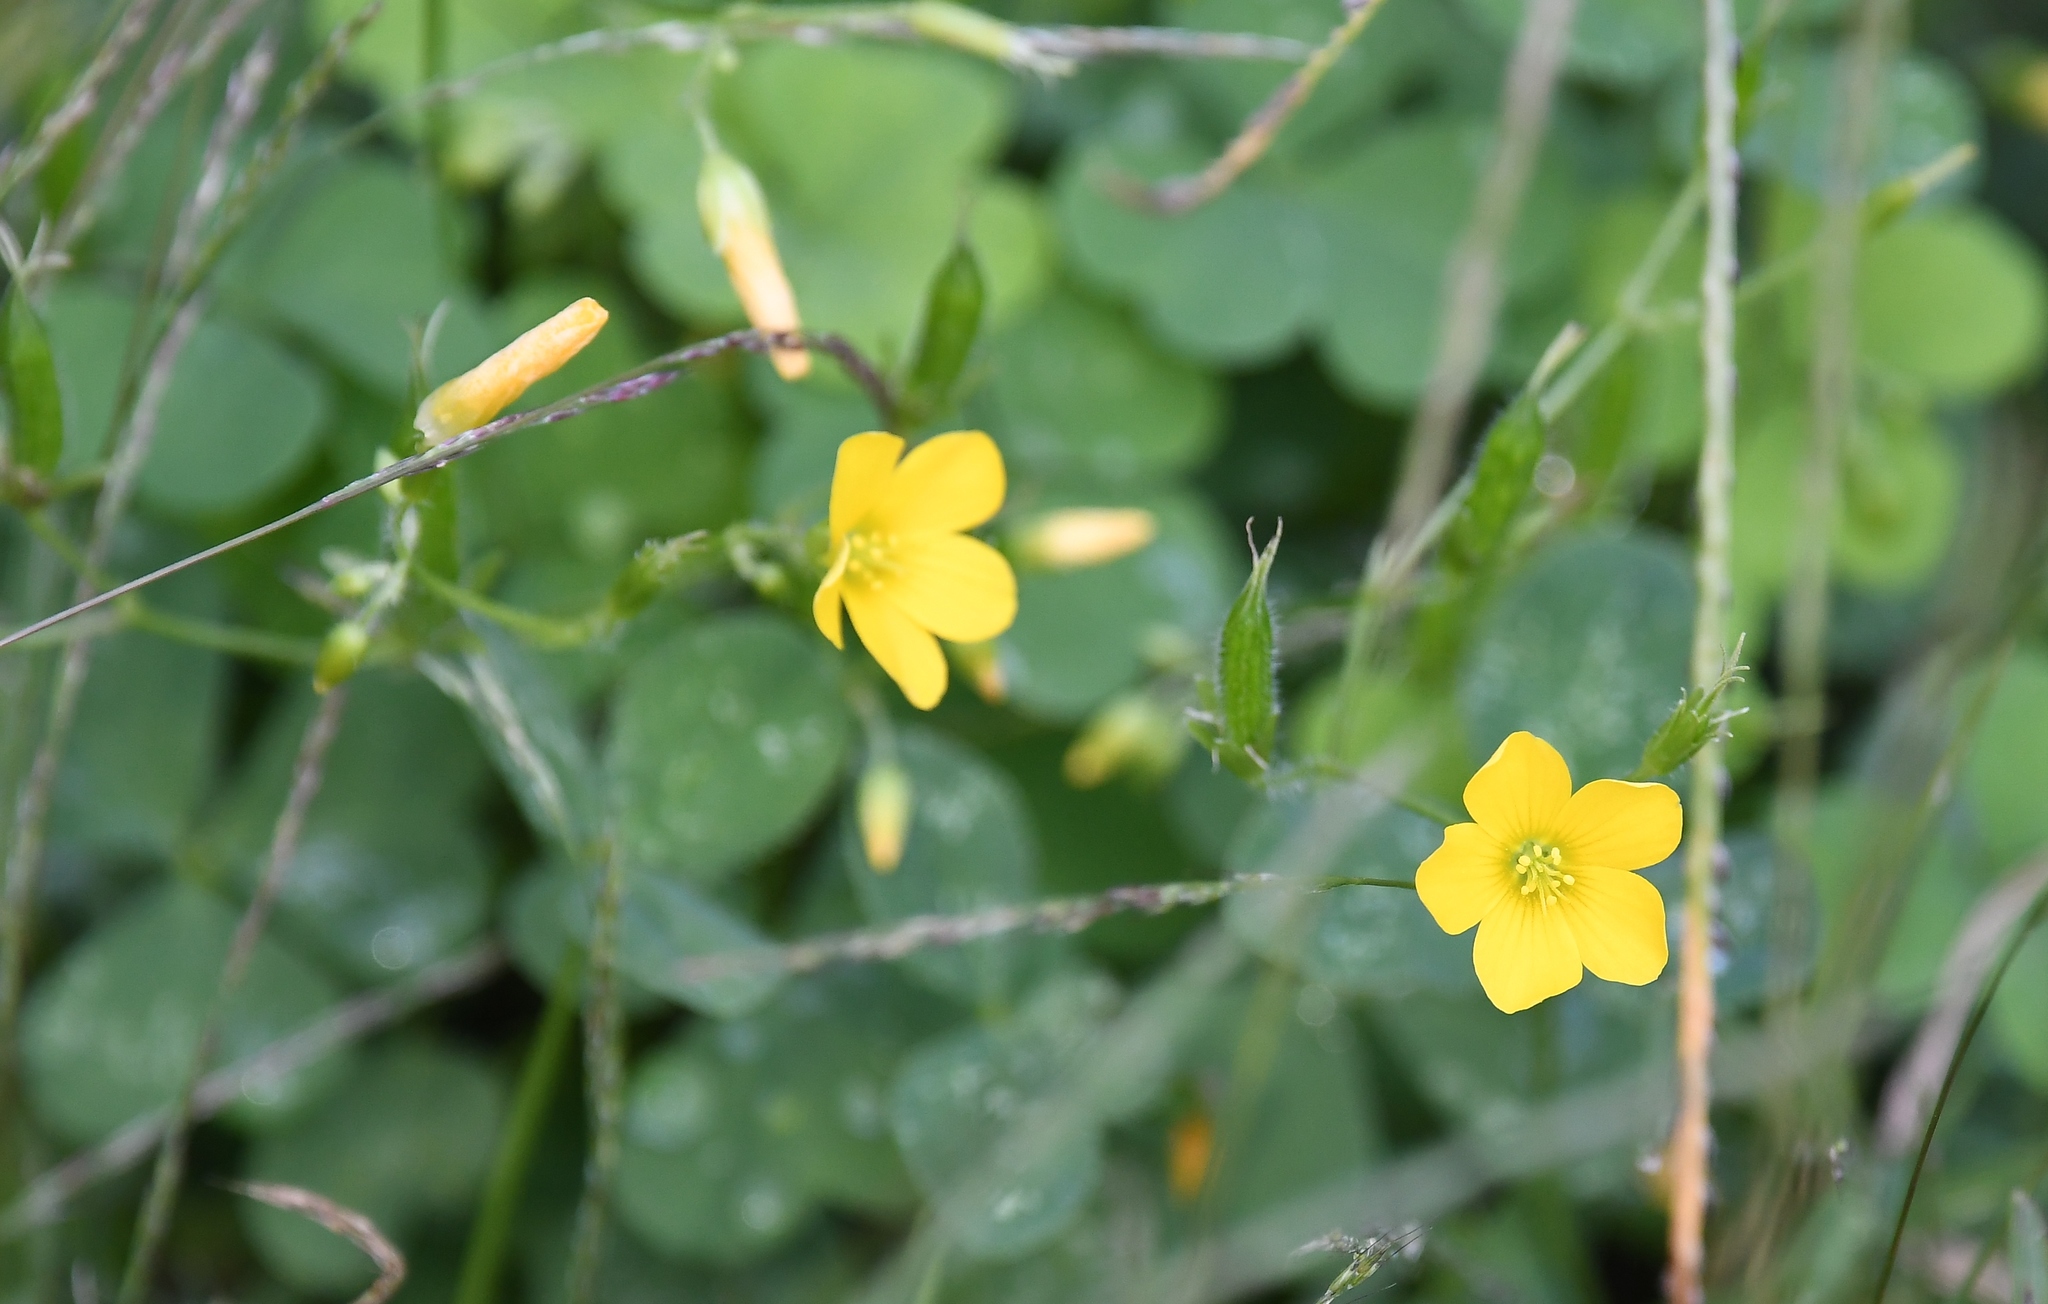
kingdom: Plantae
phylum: Tracheophyta
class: Magnoliopsida
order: Oxalidales
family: Oxalidaceae
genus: Oxalis
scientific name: Oxalis stricta
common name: Upright yellow-sorrel
